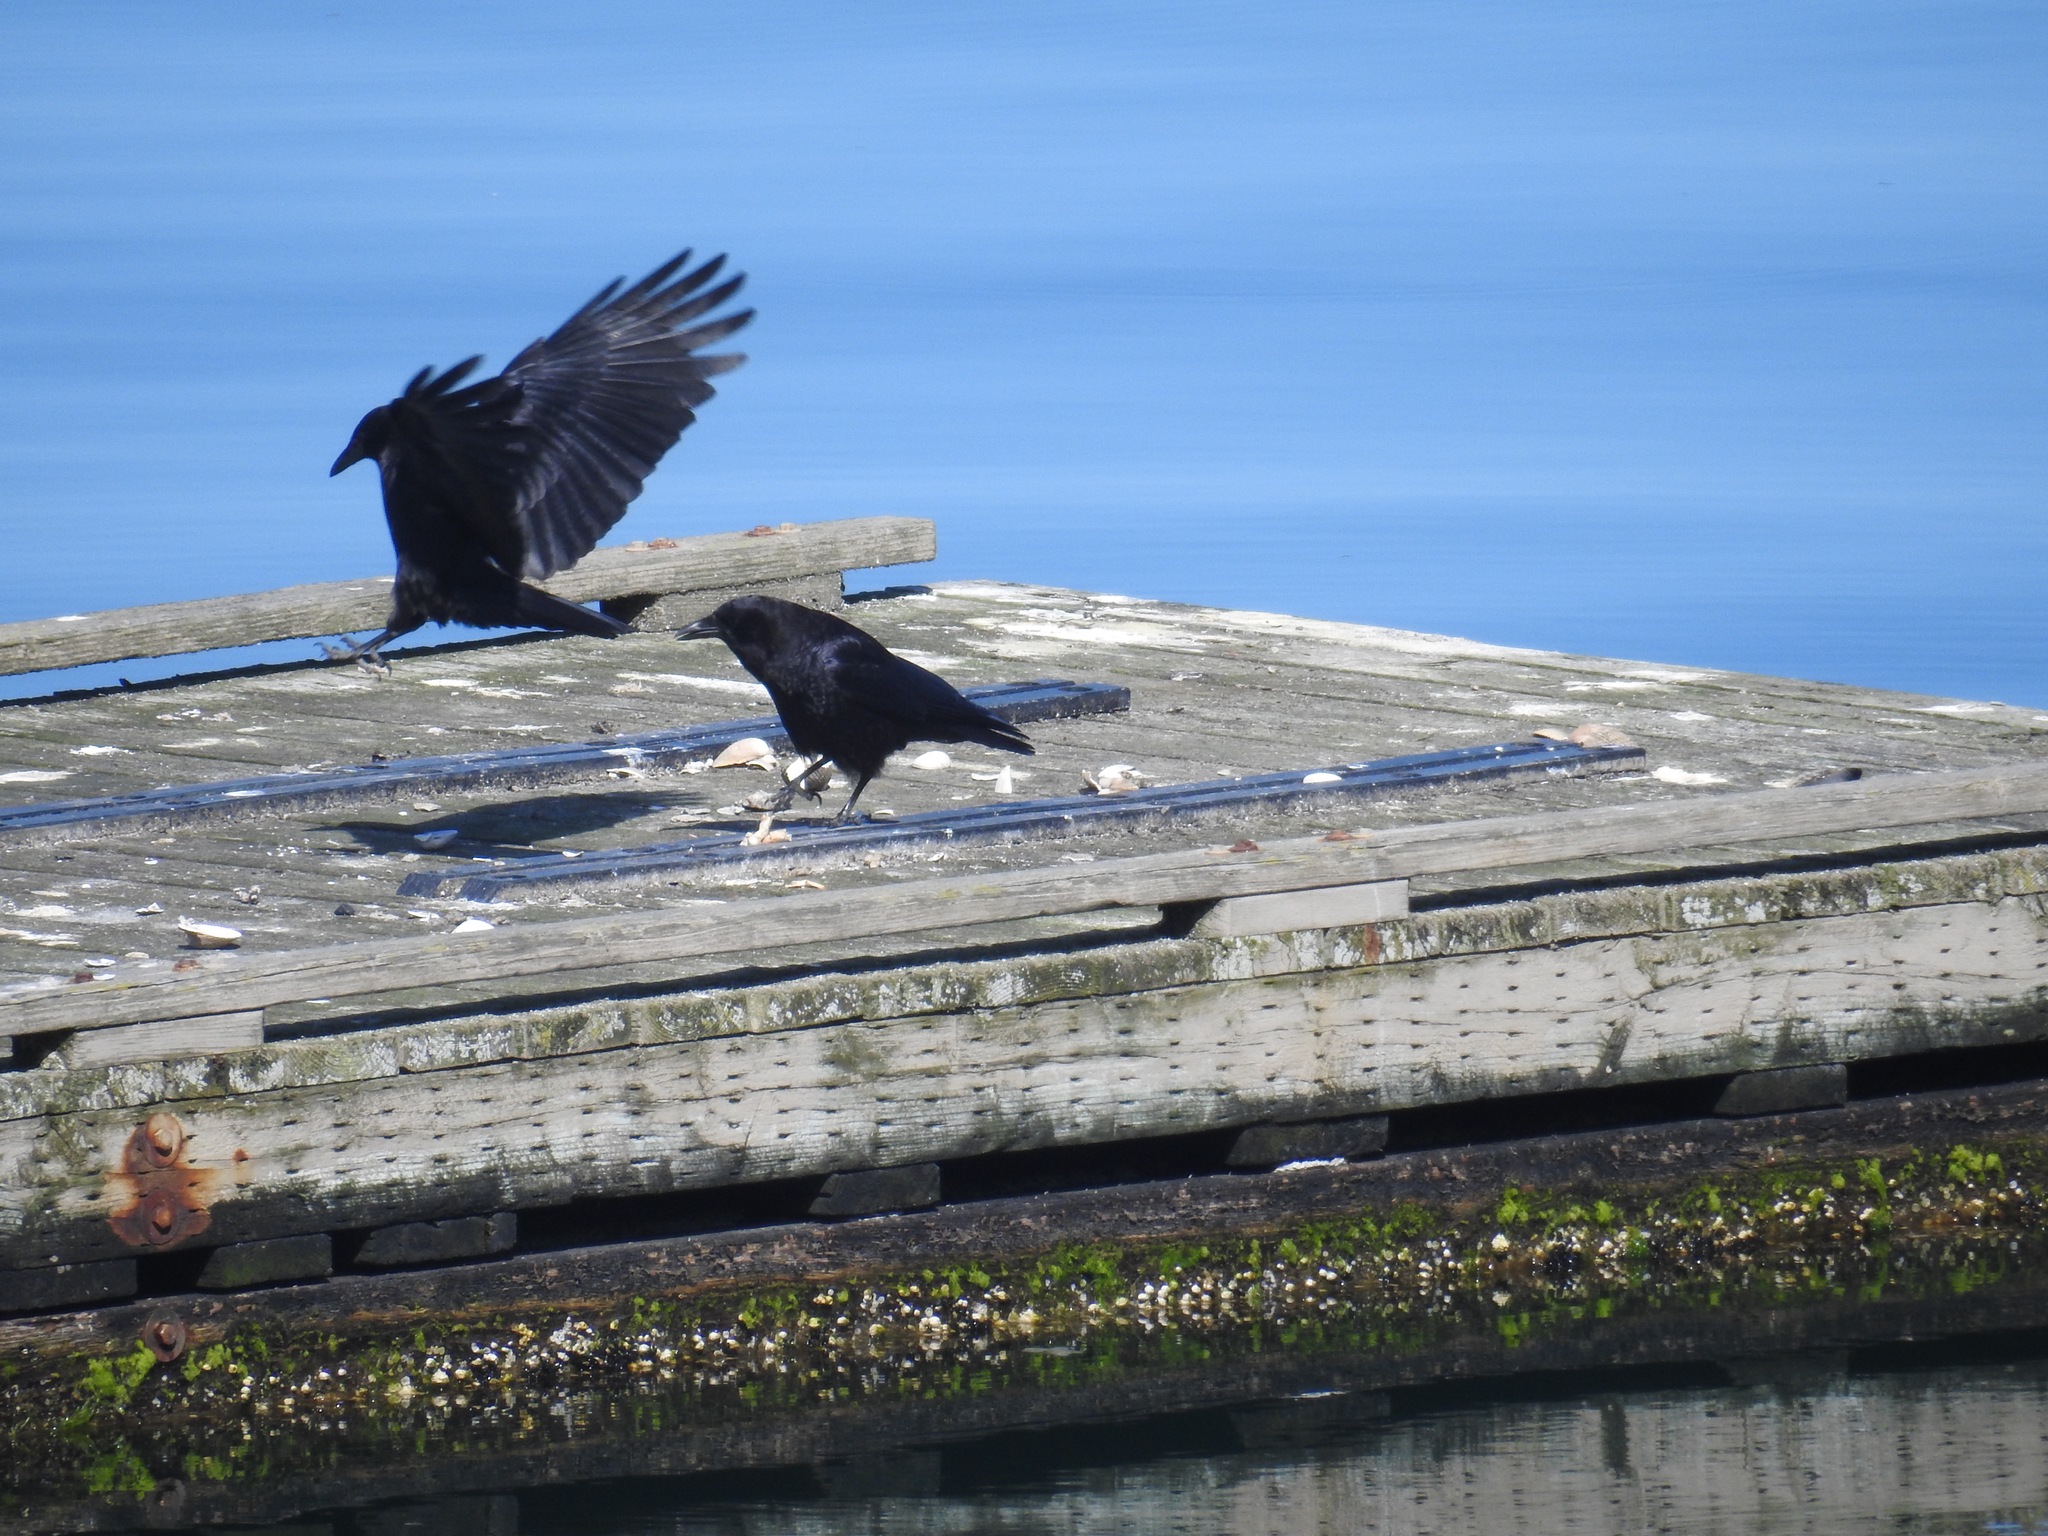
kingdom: Animalia
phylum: Chordata
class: Aves
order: Passeriformes
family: Corvidae
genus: Corvus
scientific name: Corvus brachyrhynchos
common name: American crow
